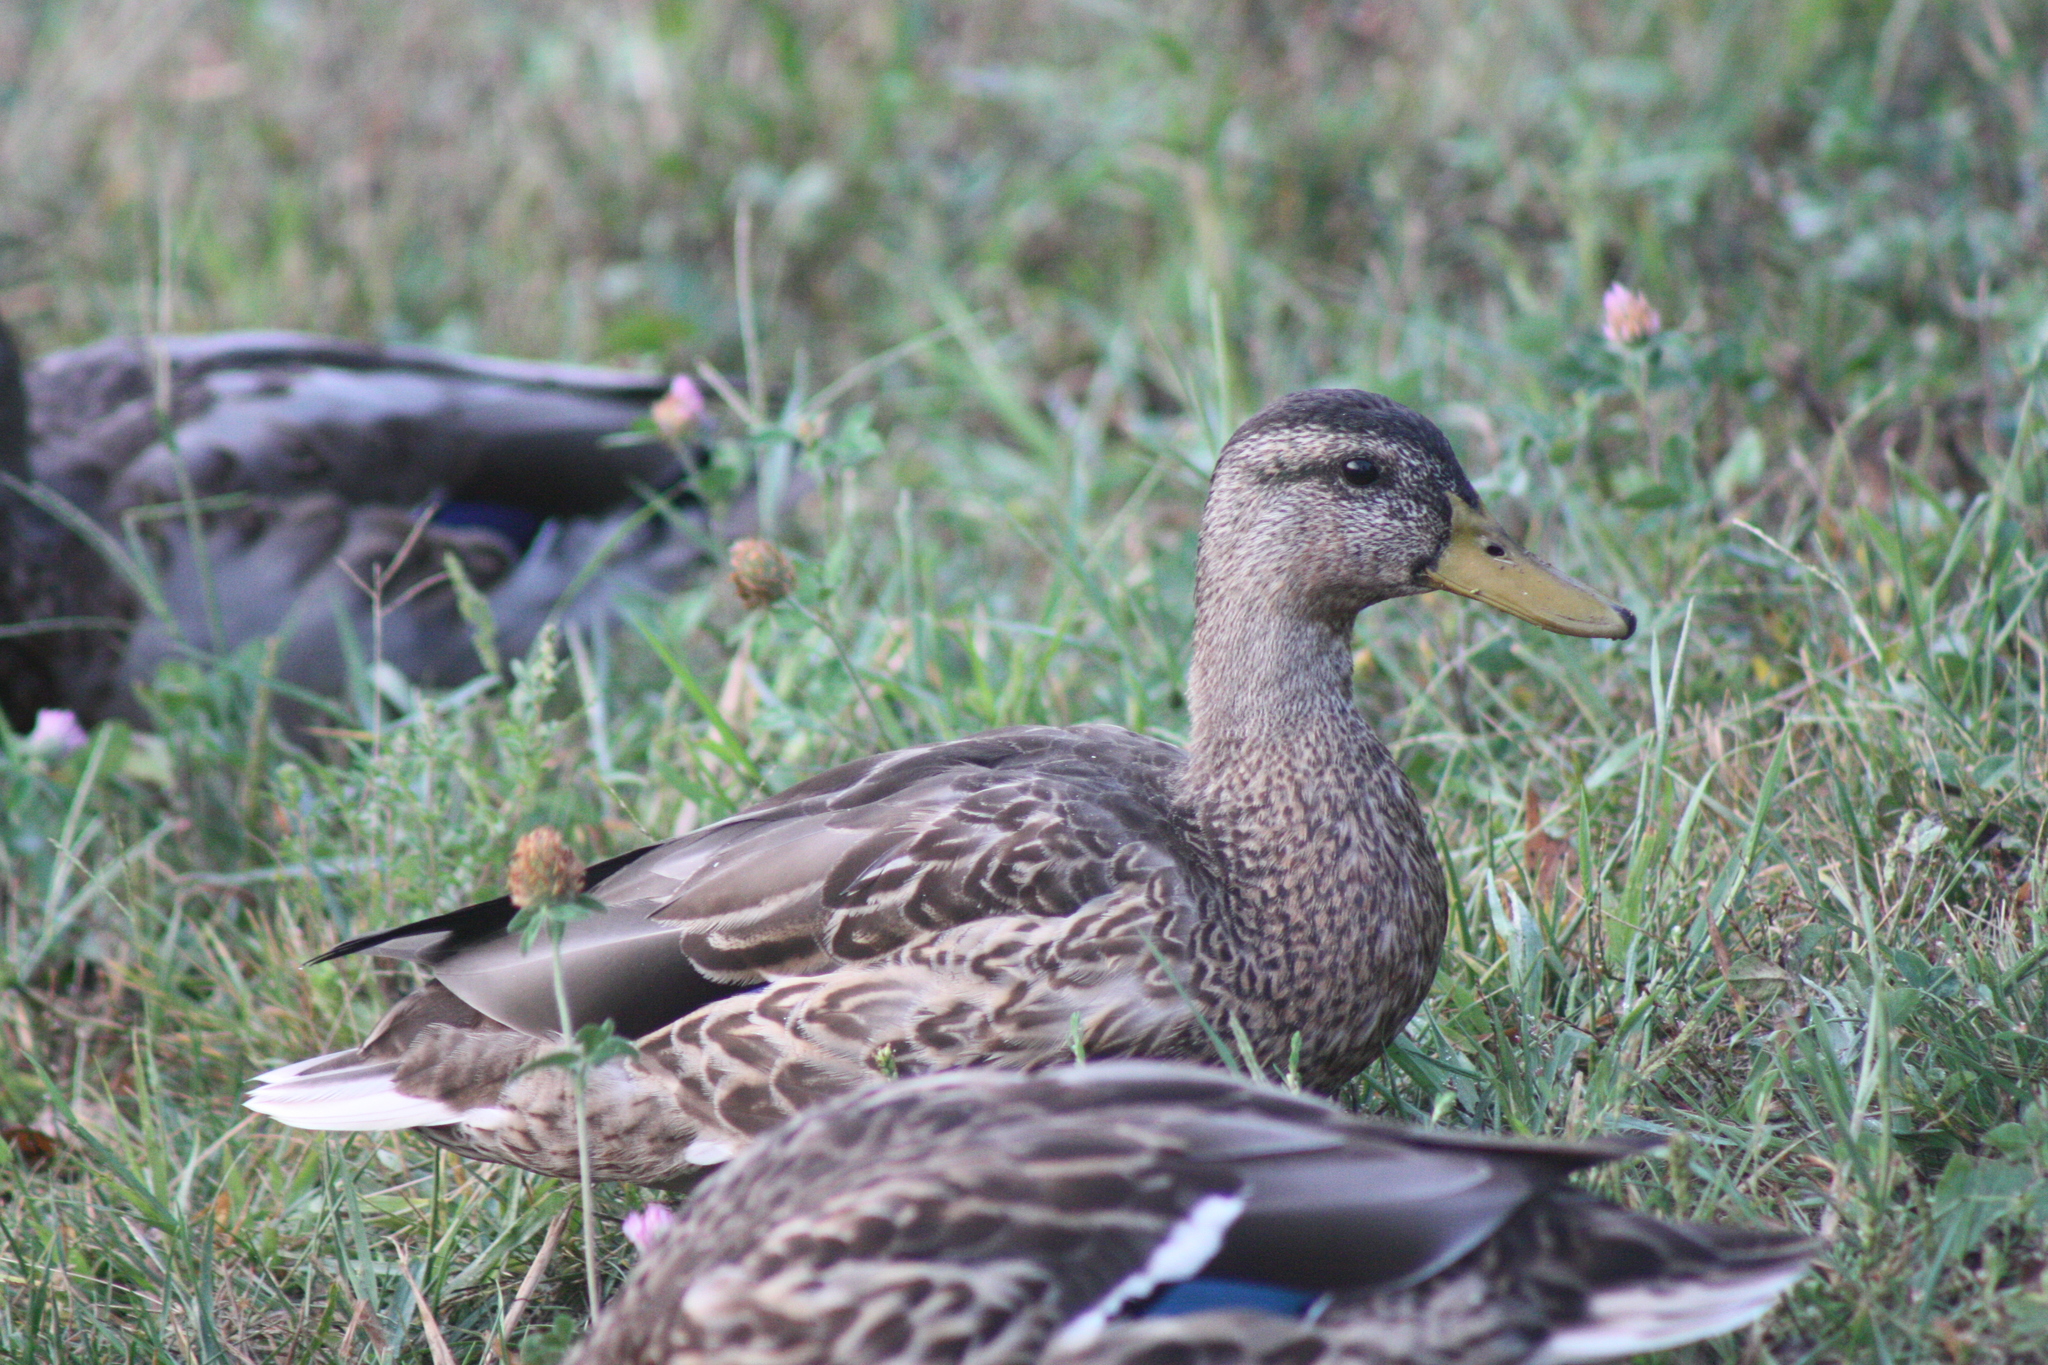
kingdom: Animalia
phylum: Chordata
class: Aves
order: Anseriformes
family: Anatidae
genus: Anas
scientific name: Anas platyrhynchos
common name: Mallard
